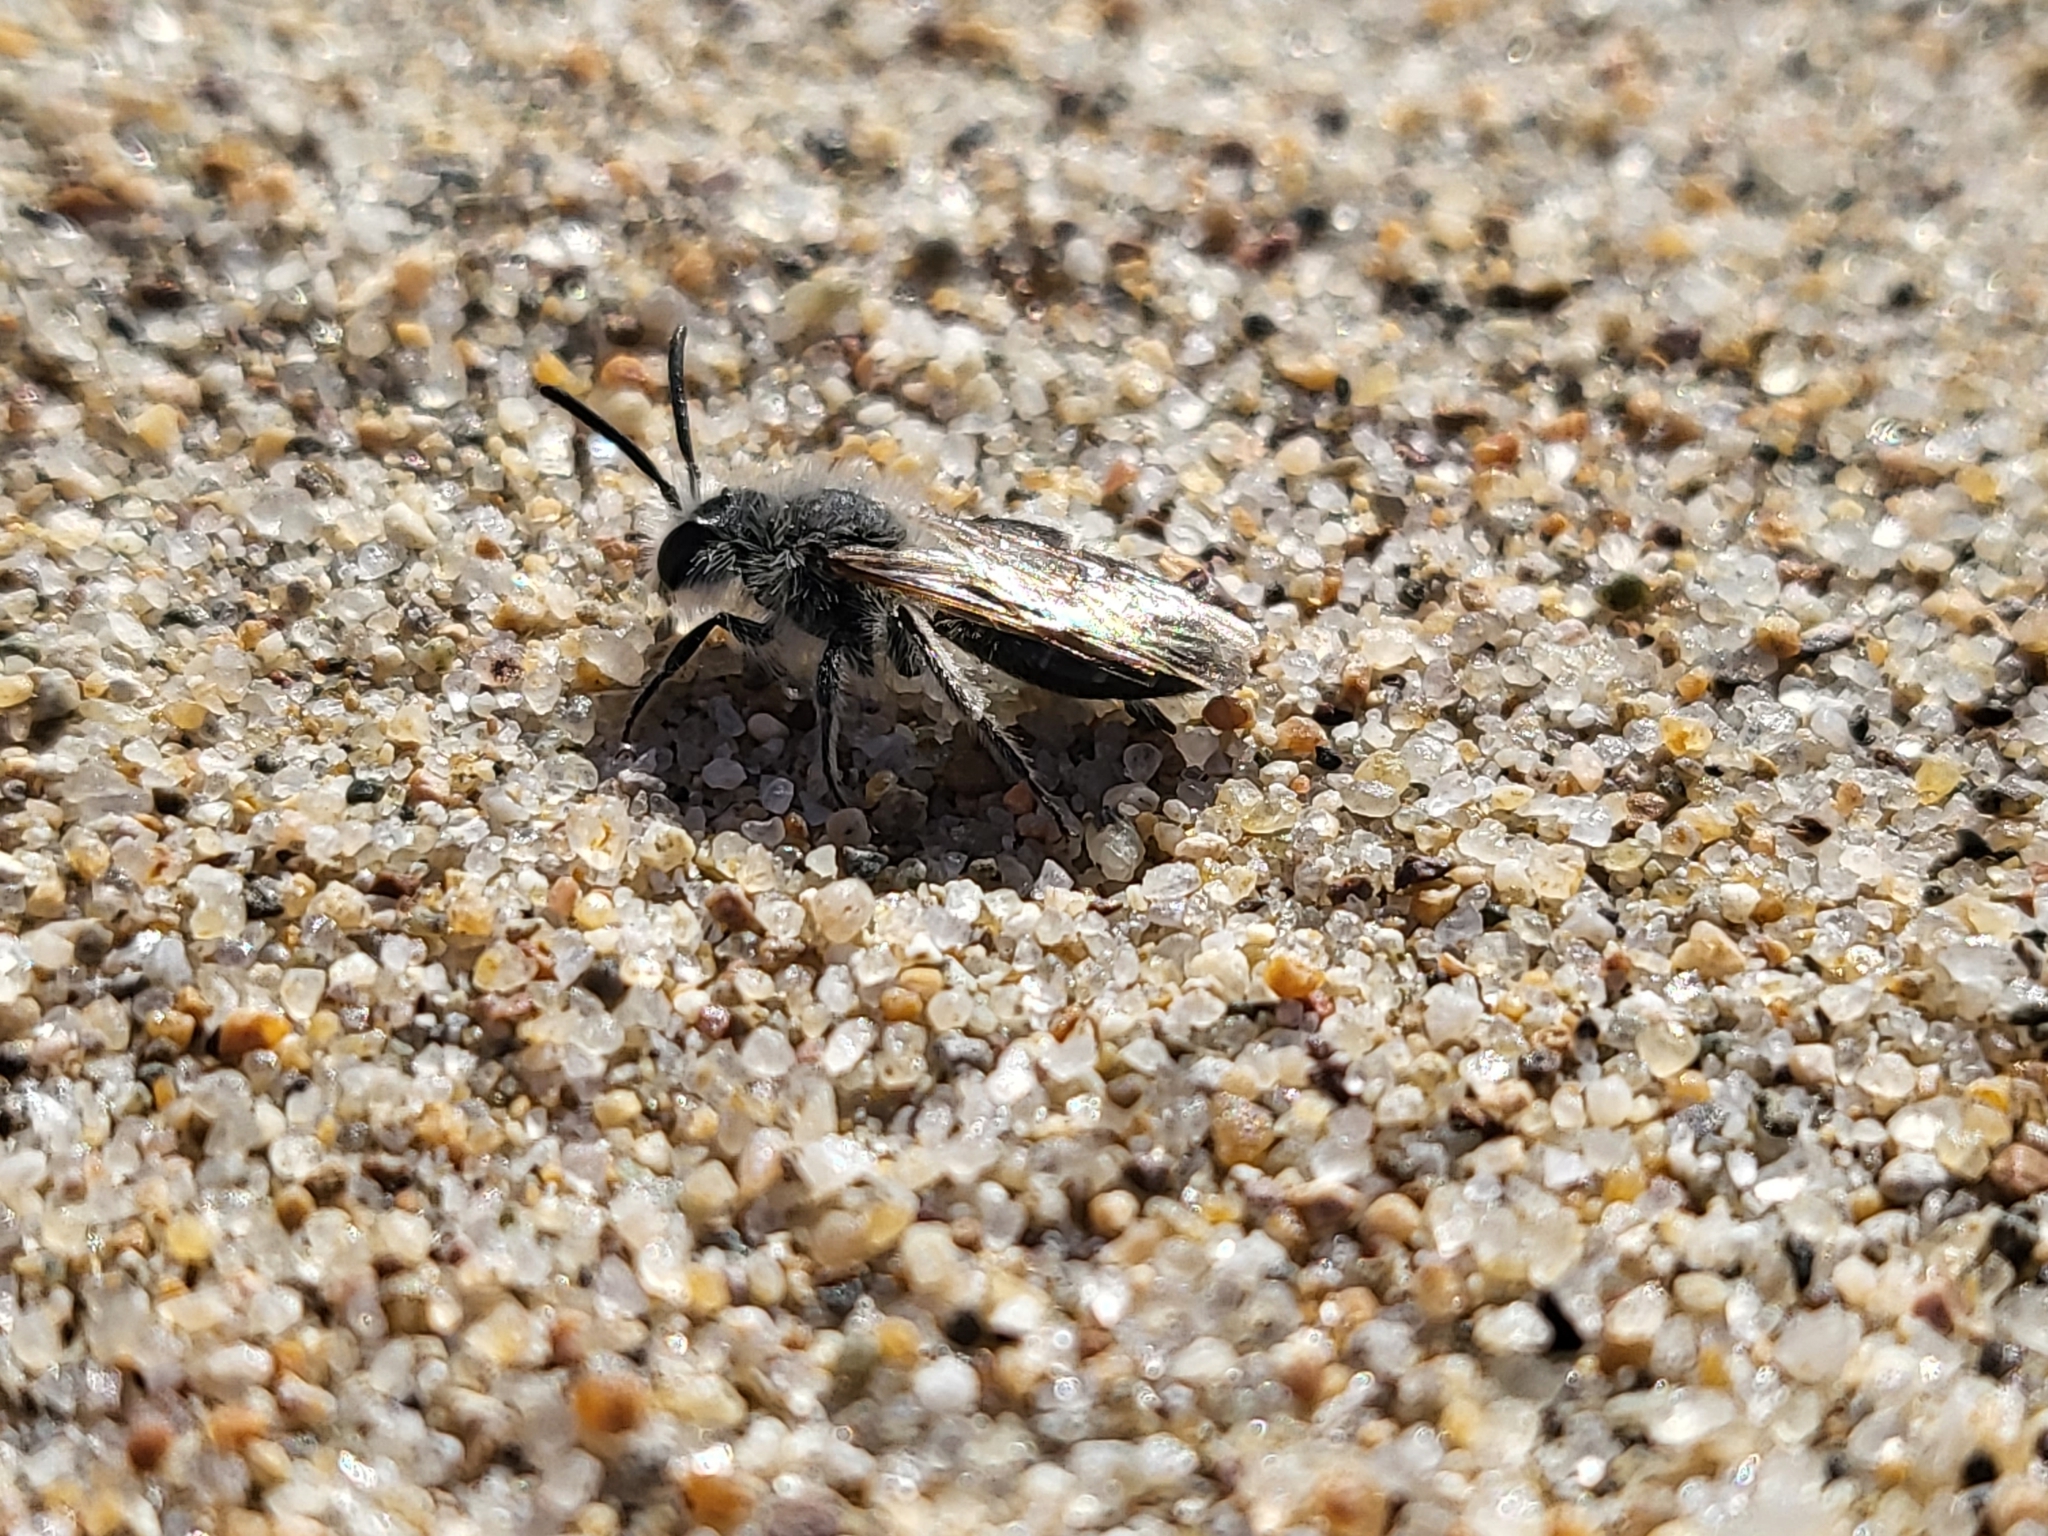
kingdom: Animalia
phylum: Arthropoda
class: Insecta
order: Hymenoptera
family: Andrenidae
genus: Andrena
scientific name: Andrena
